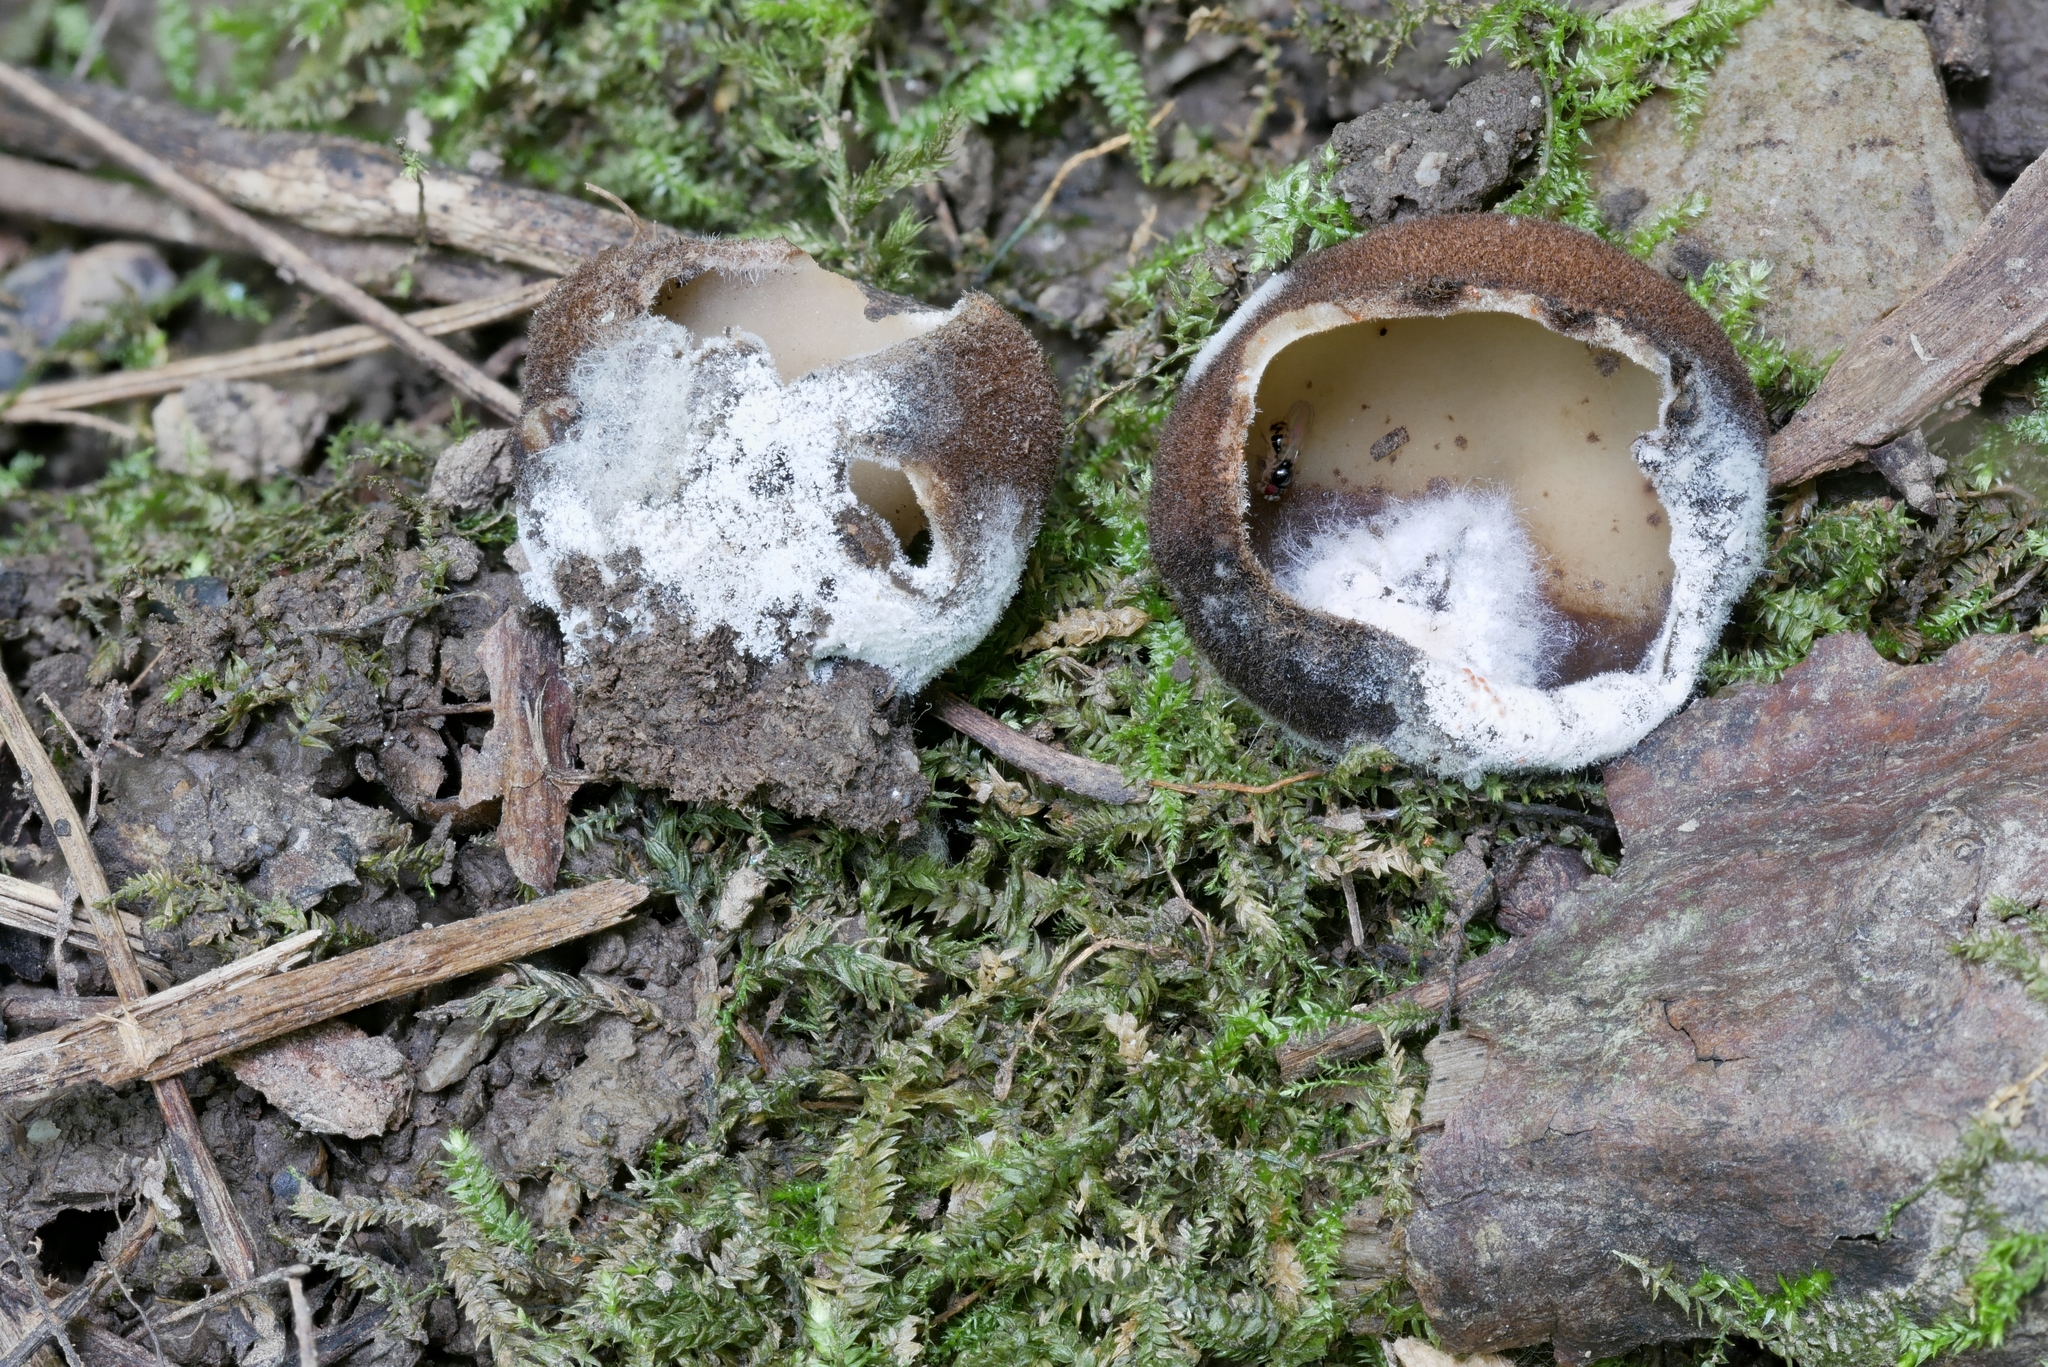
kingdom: Fungi
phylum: Ascomycota
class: Sordariomycetes
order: Hypocreales
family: Bionectriaceae
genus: Clonostachys
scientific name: Clonostachys rosea
